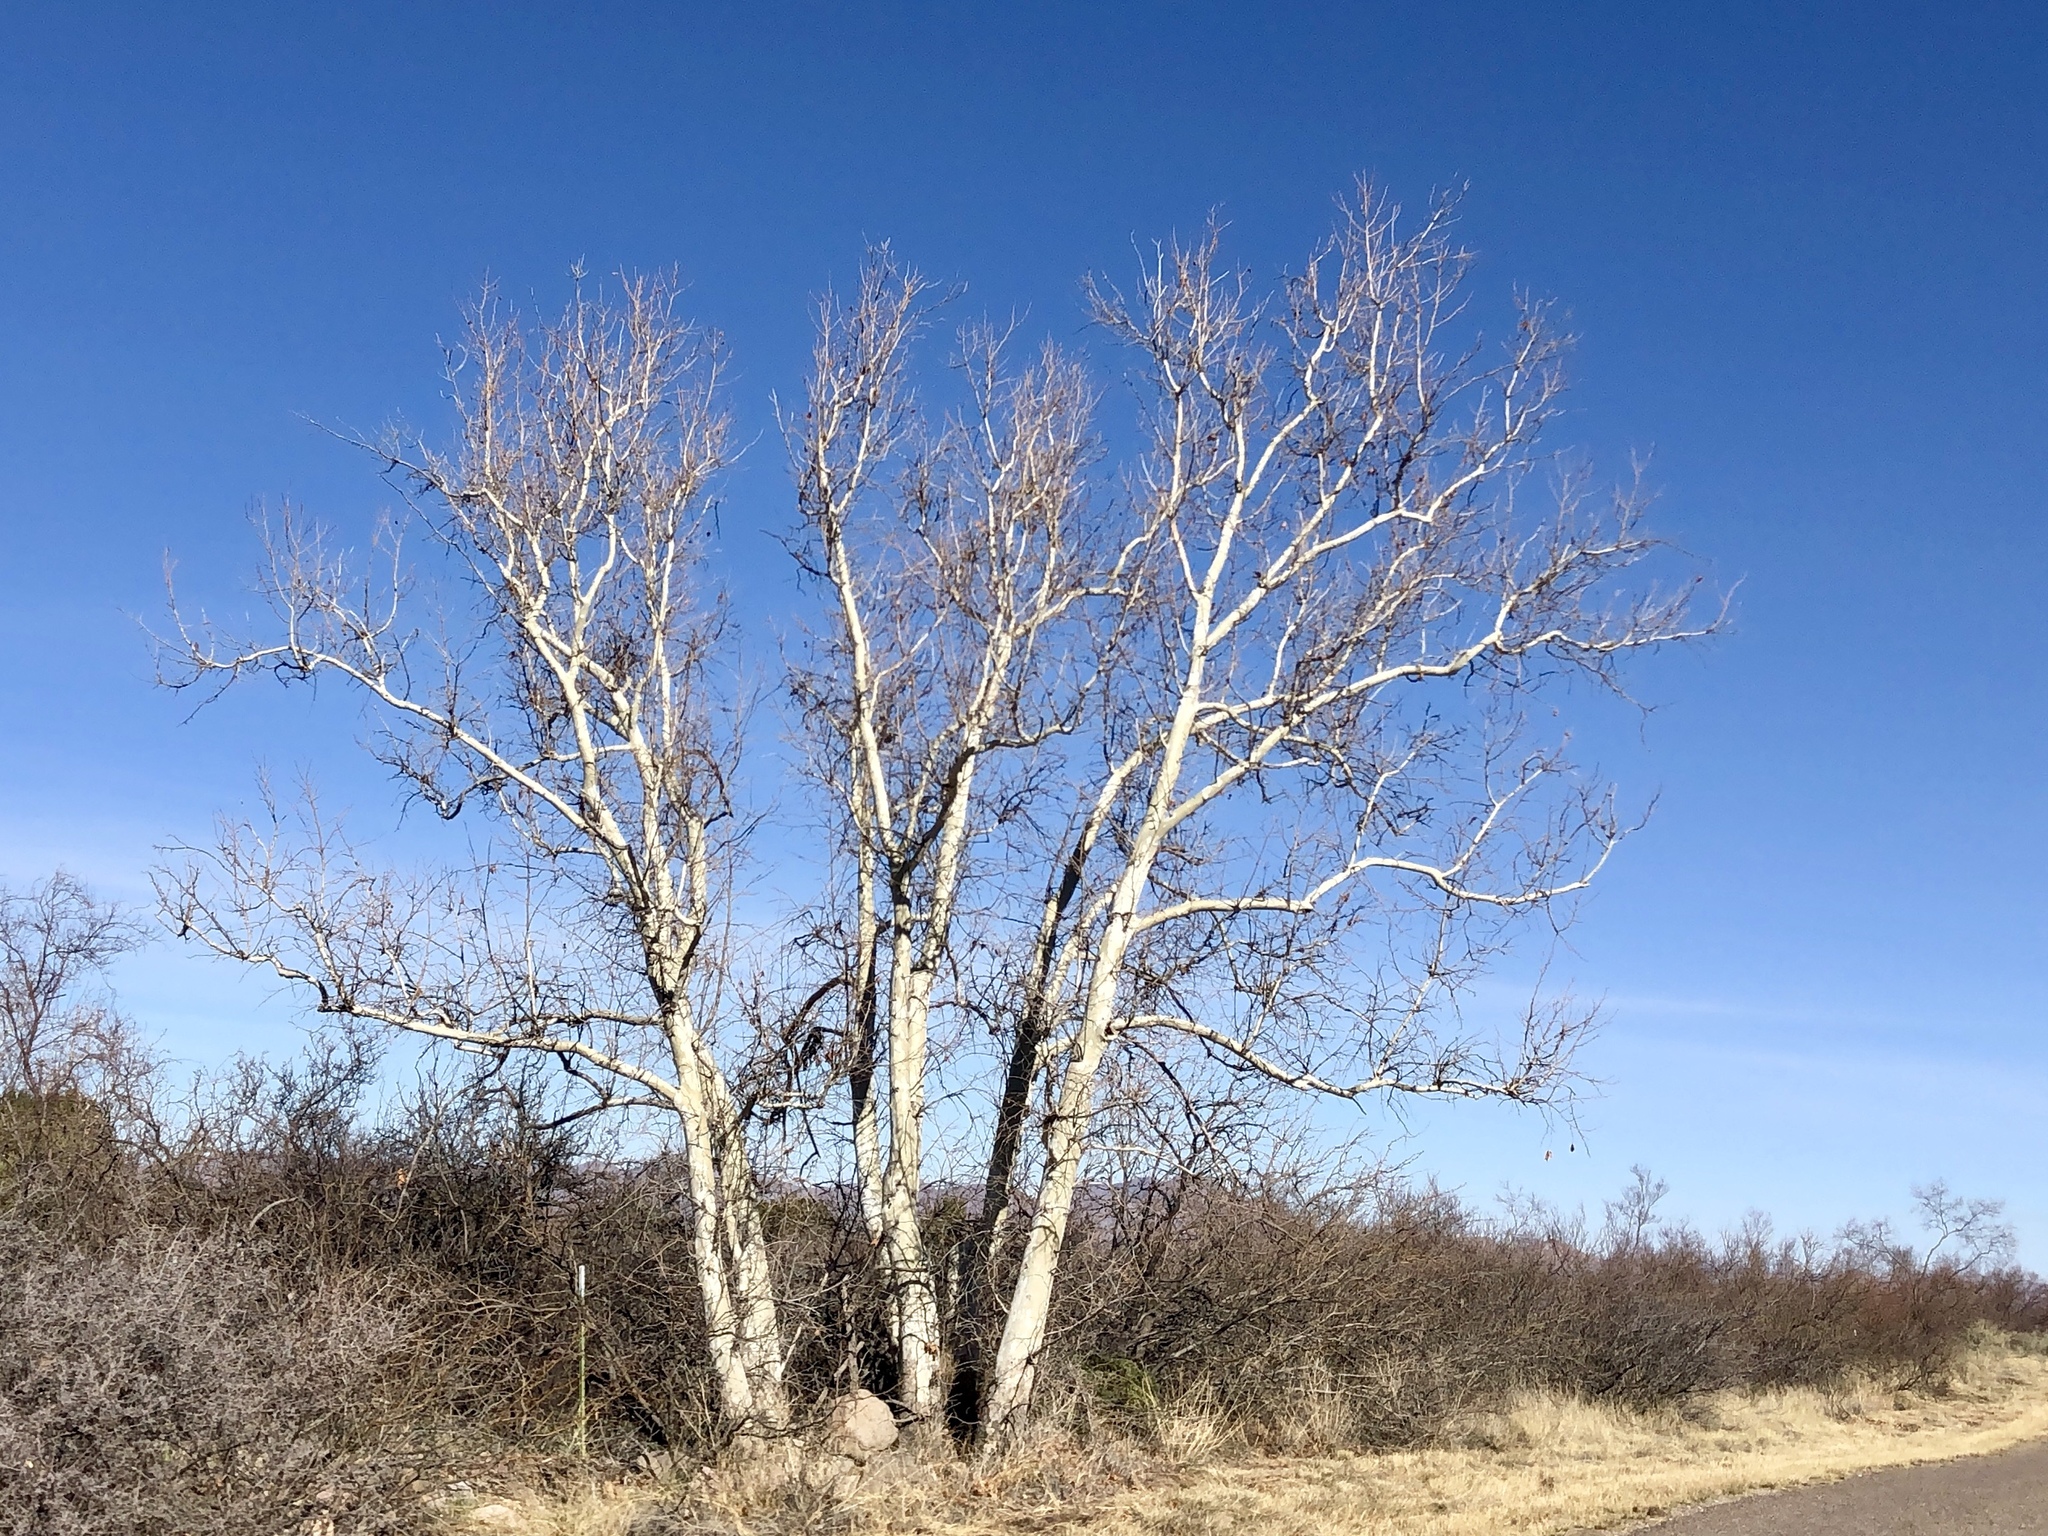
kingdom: Plantae
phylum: Tracheophyta
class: Magnoliopsida
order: Proteales
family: Platanaceae
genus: Platanus
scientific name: Platanus wrightii
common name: Arizona sycamore
